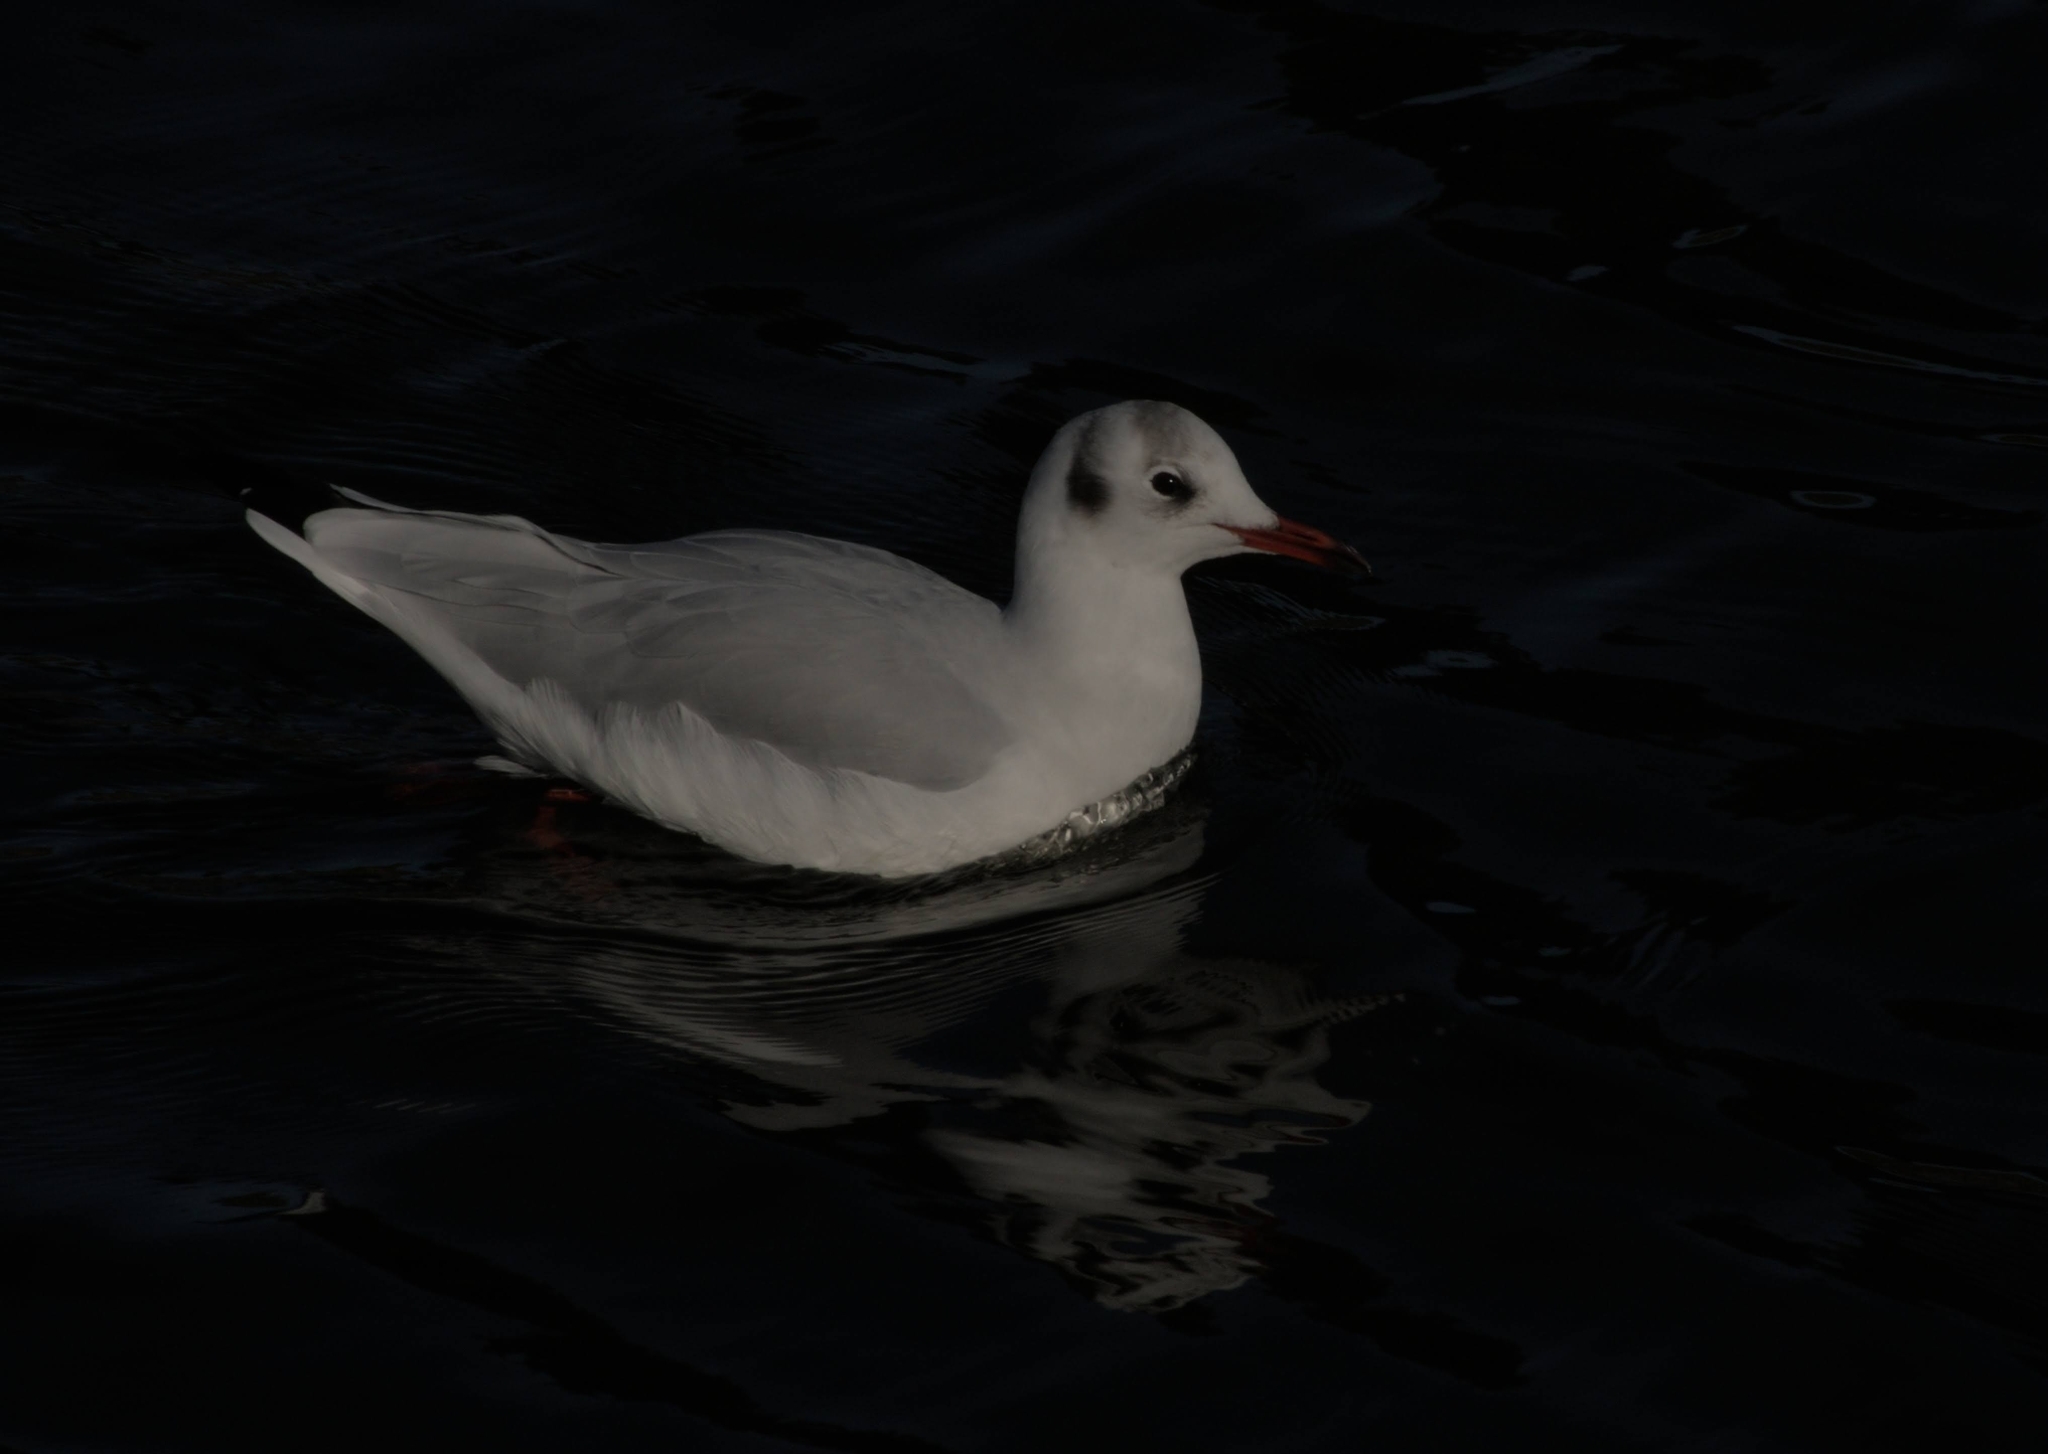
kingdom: Animalia
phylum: Chordata
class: Aves
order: Charadriiformes
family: Laridae
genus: Chroicocephalus
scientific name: Chroicocephalus ridibundus
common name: Black-headed gull
